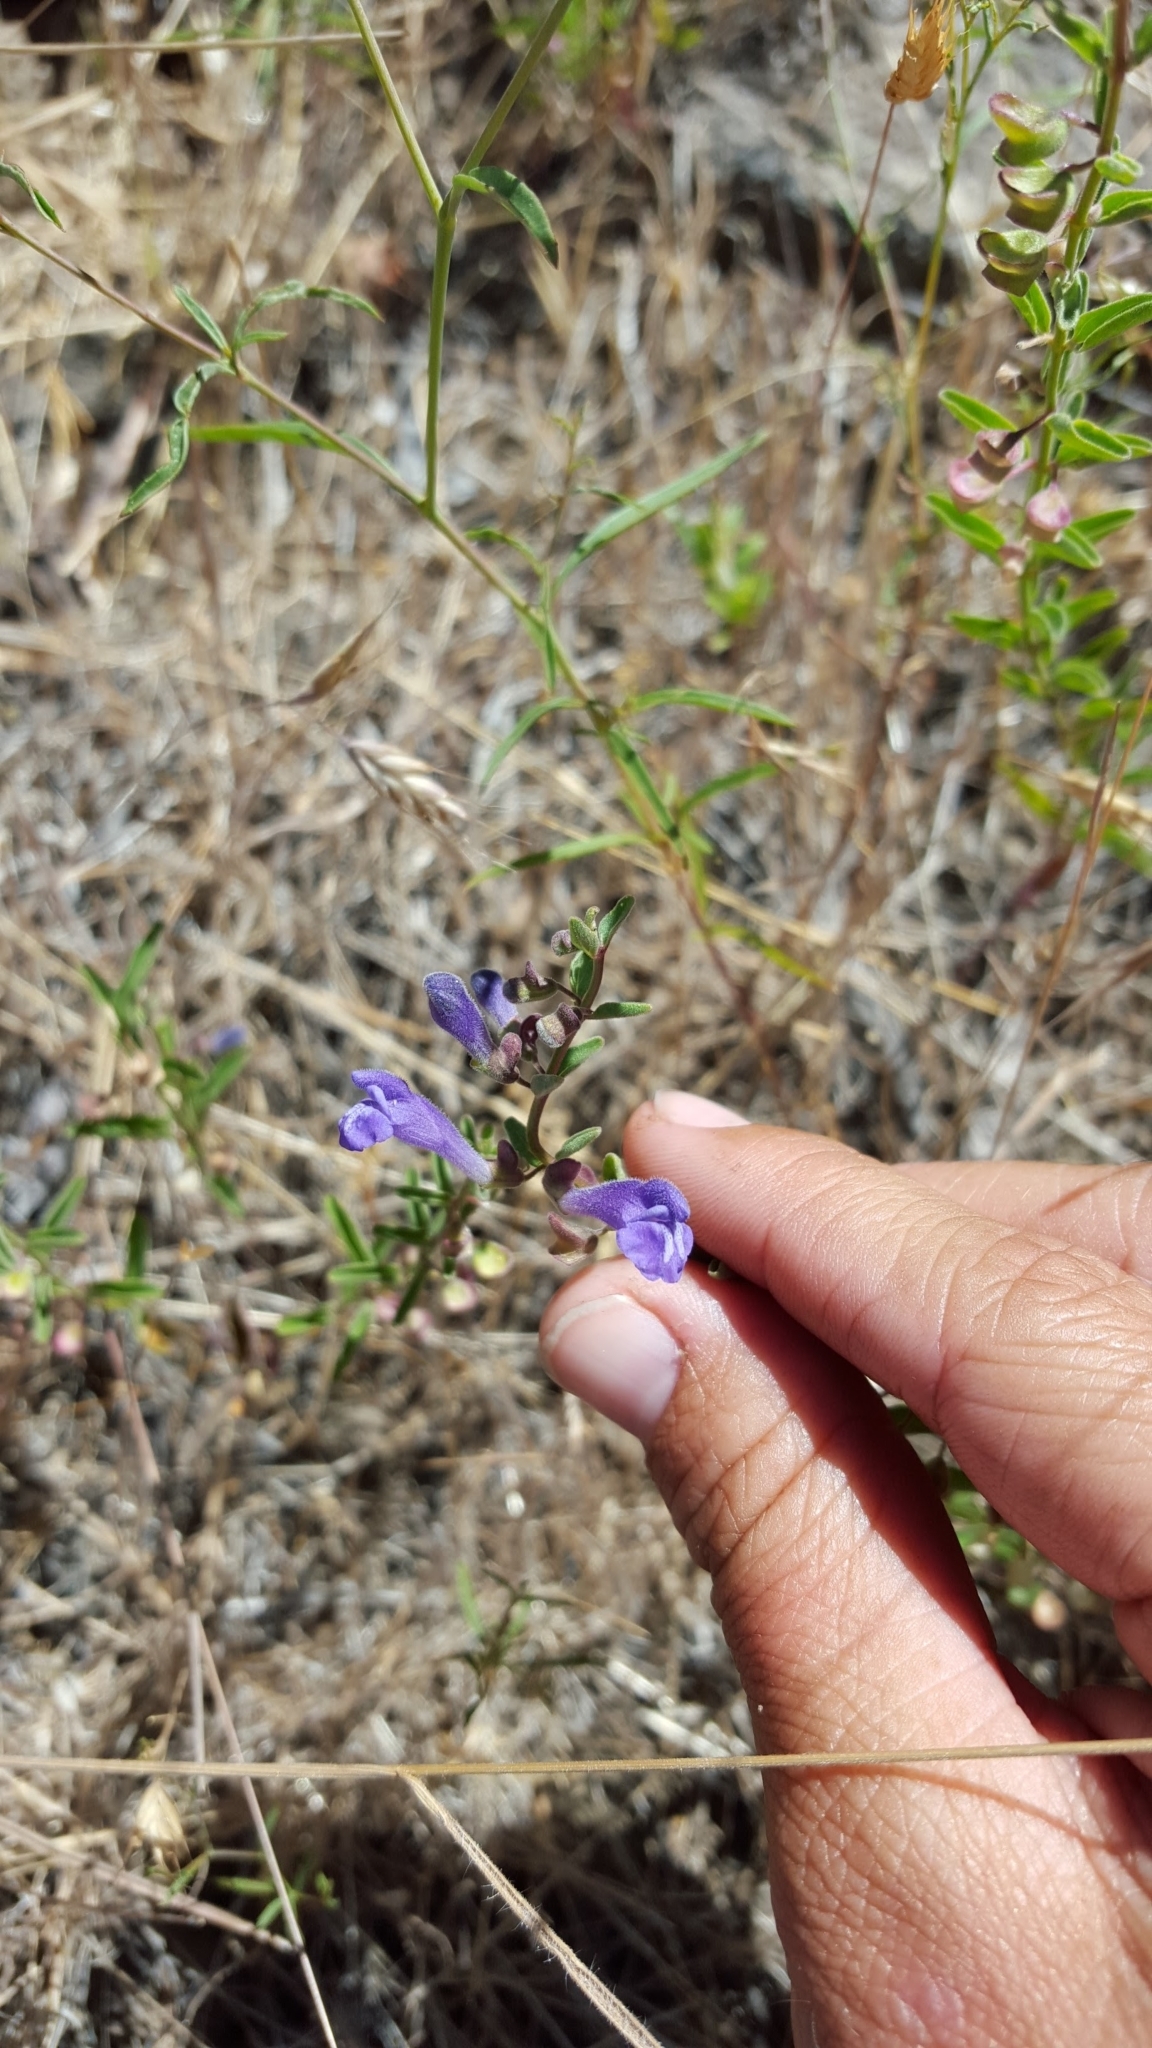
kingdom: Plantae
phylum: Tracheophyta
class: Magnoliopsida
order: Lamiales
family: Lamiaceae
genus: Scutellaria
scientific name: Scutellaria angustifolia
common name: Narrow-leaved skullcap
